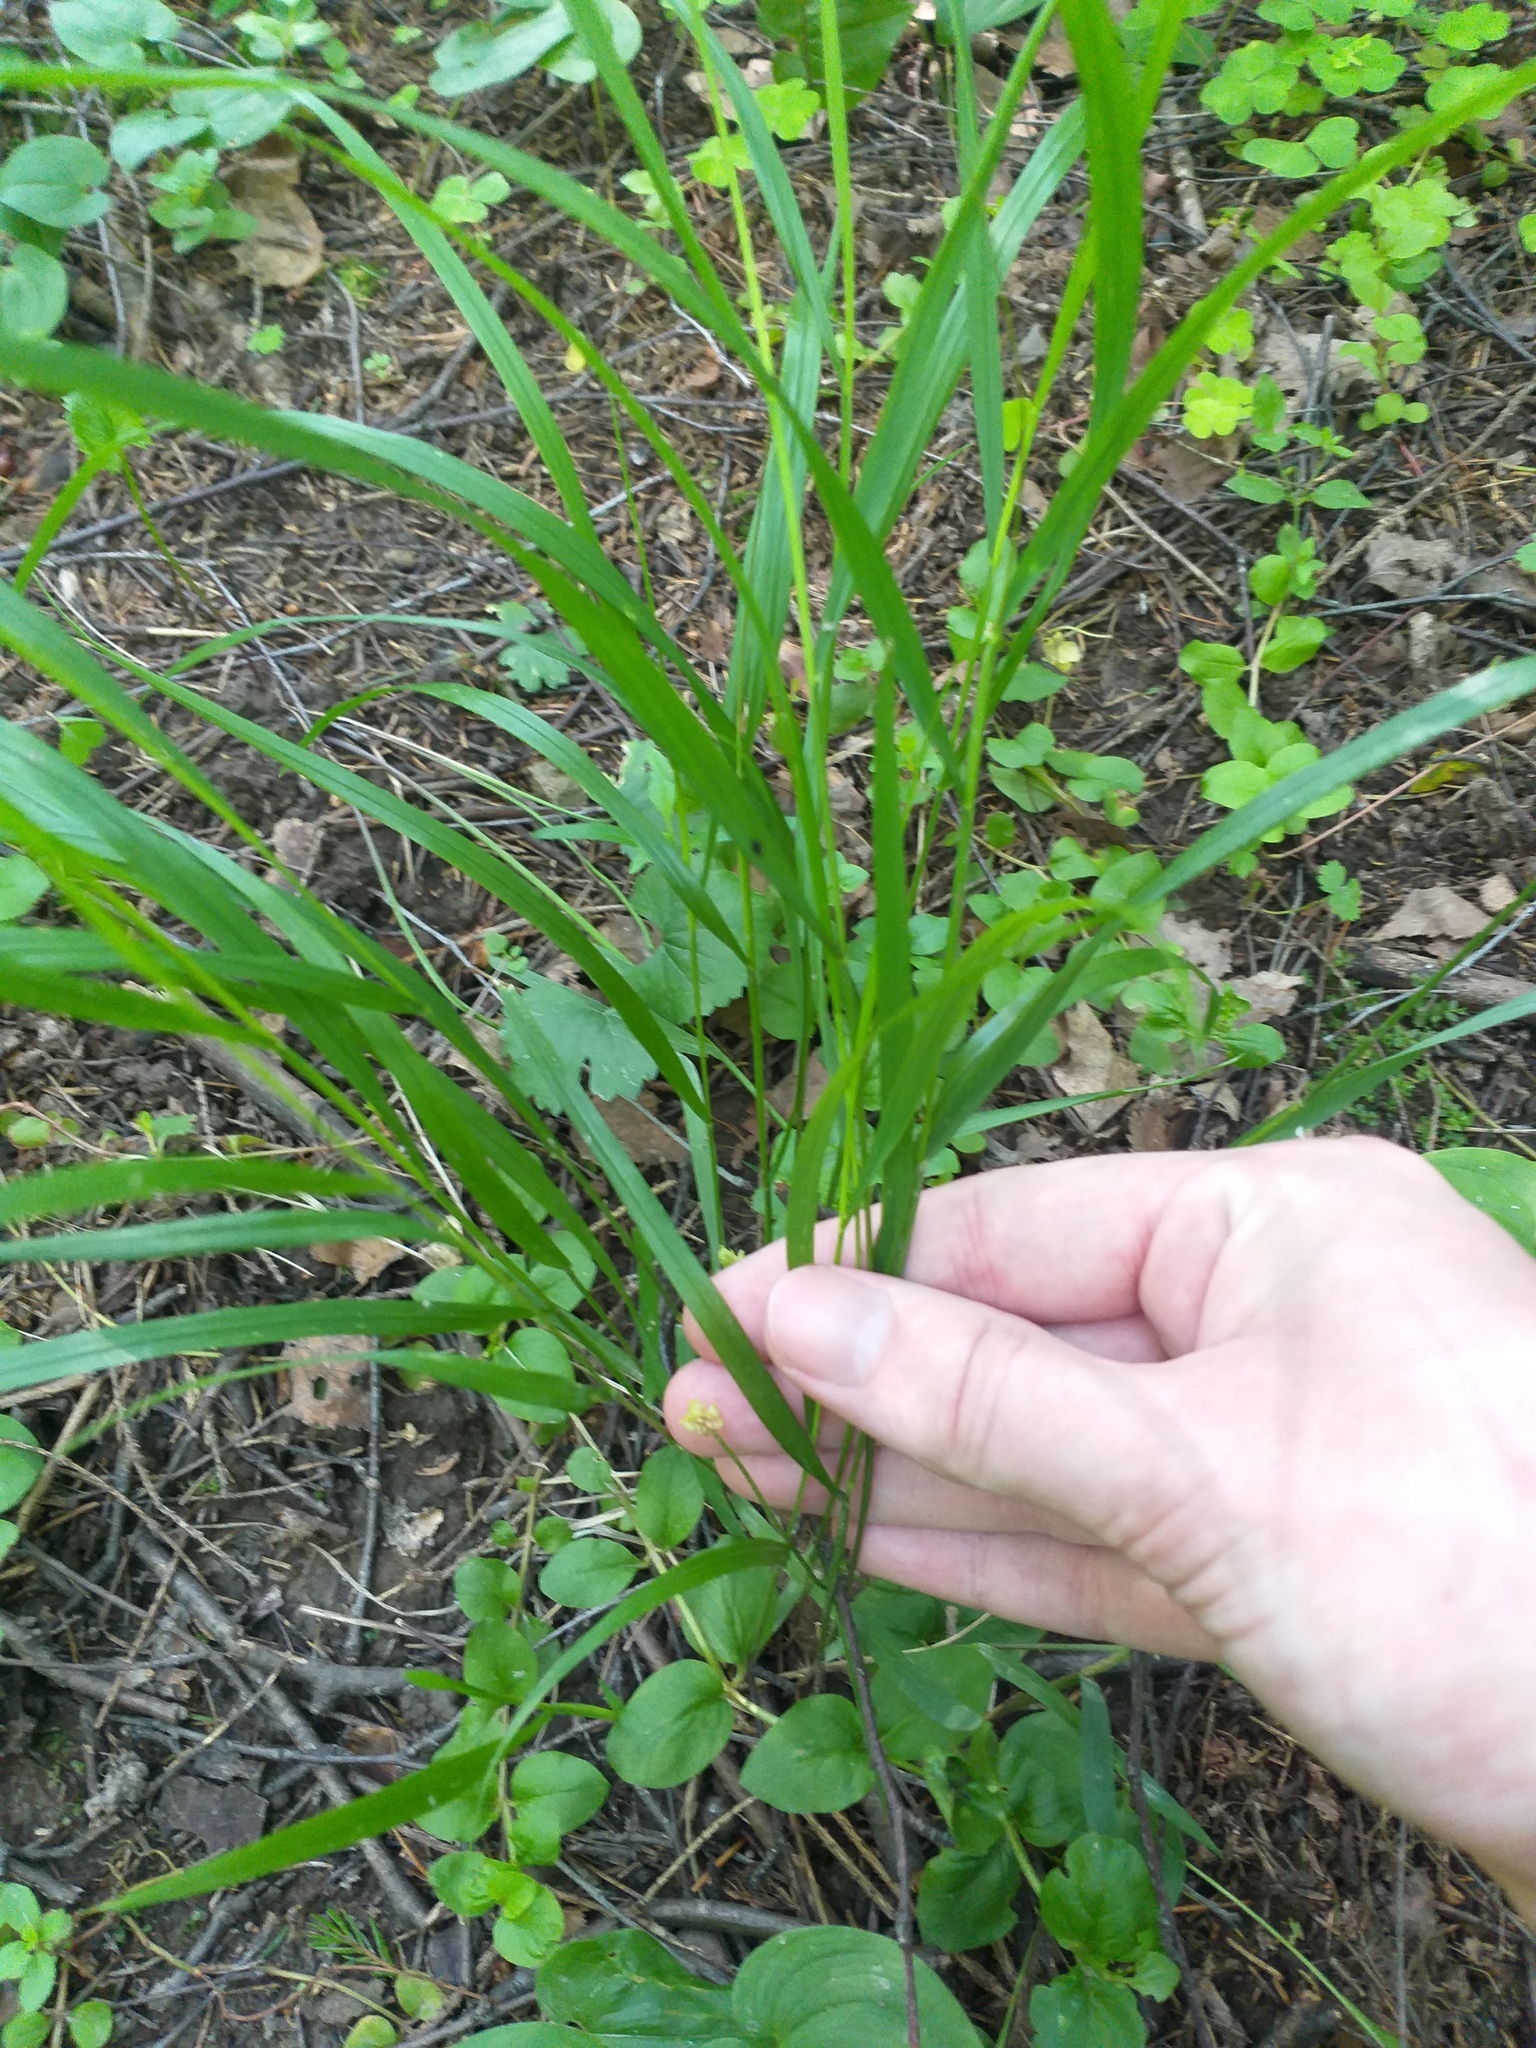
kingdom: Plantae
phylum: Tracheophyta
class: Liliopsida
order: Poales
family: Poaceae
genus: Melica
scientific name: Melica nutans
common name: Mountain melick
